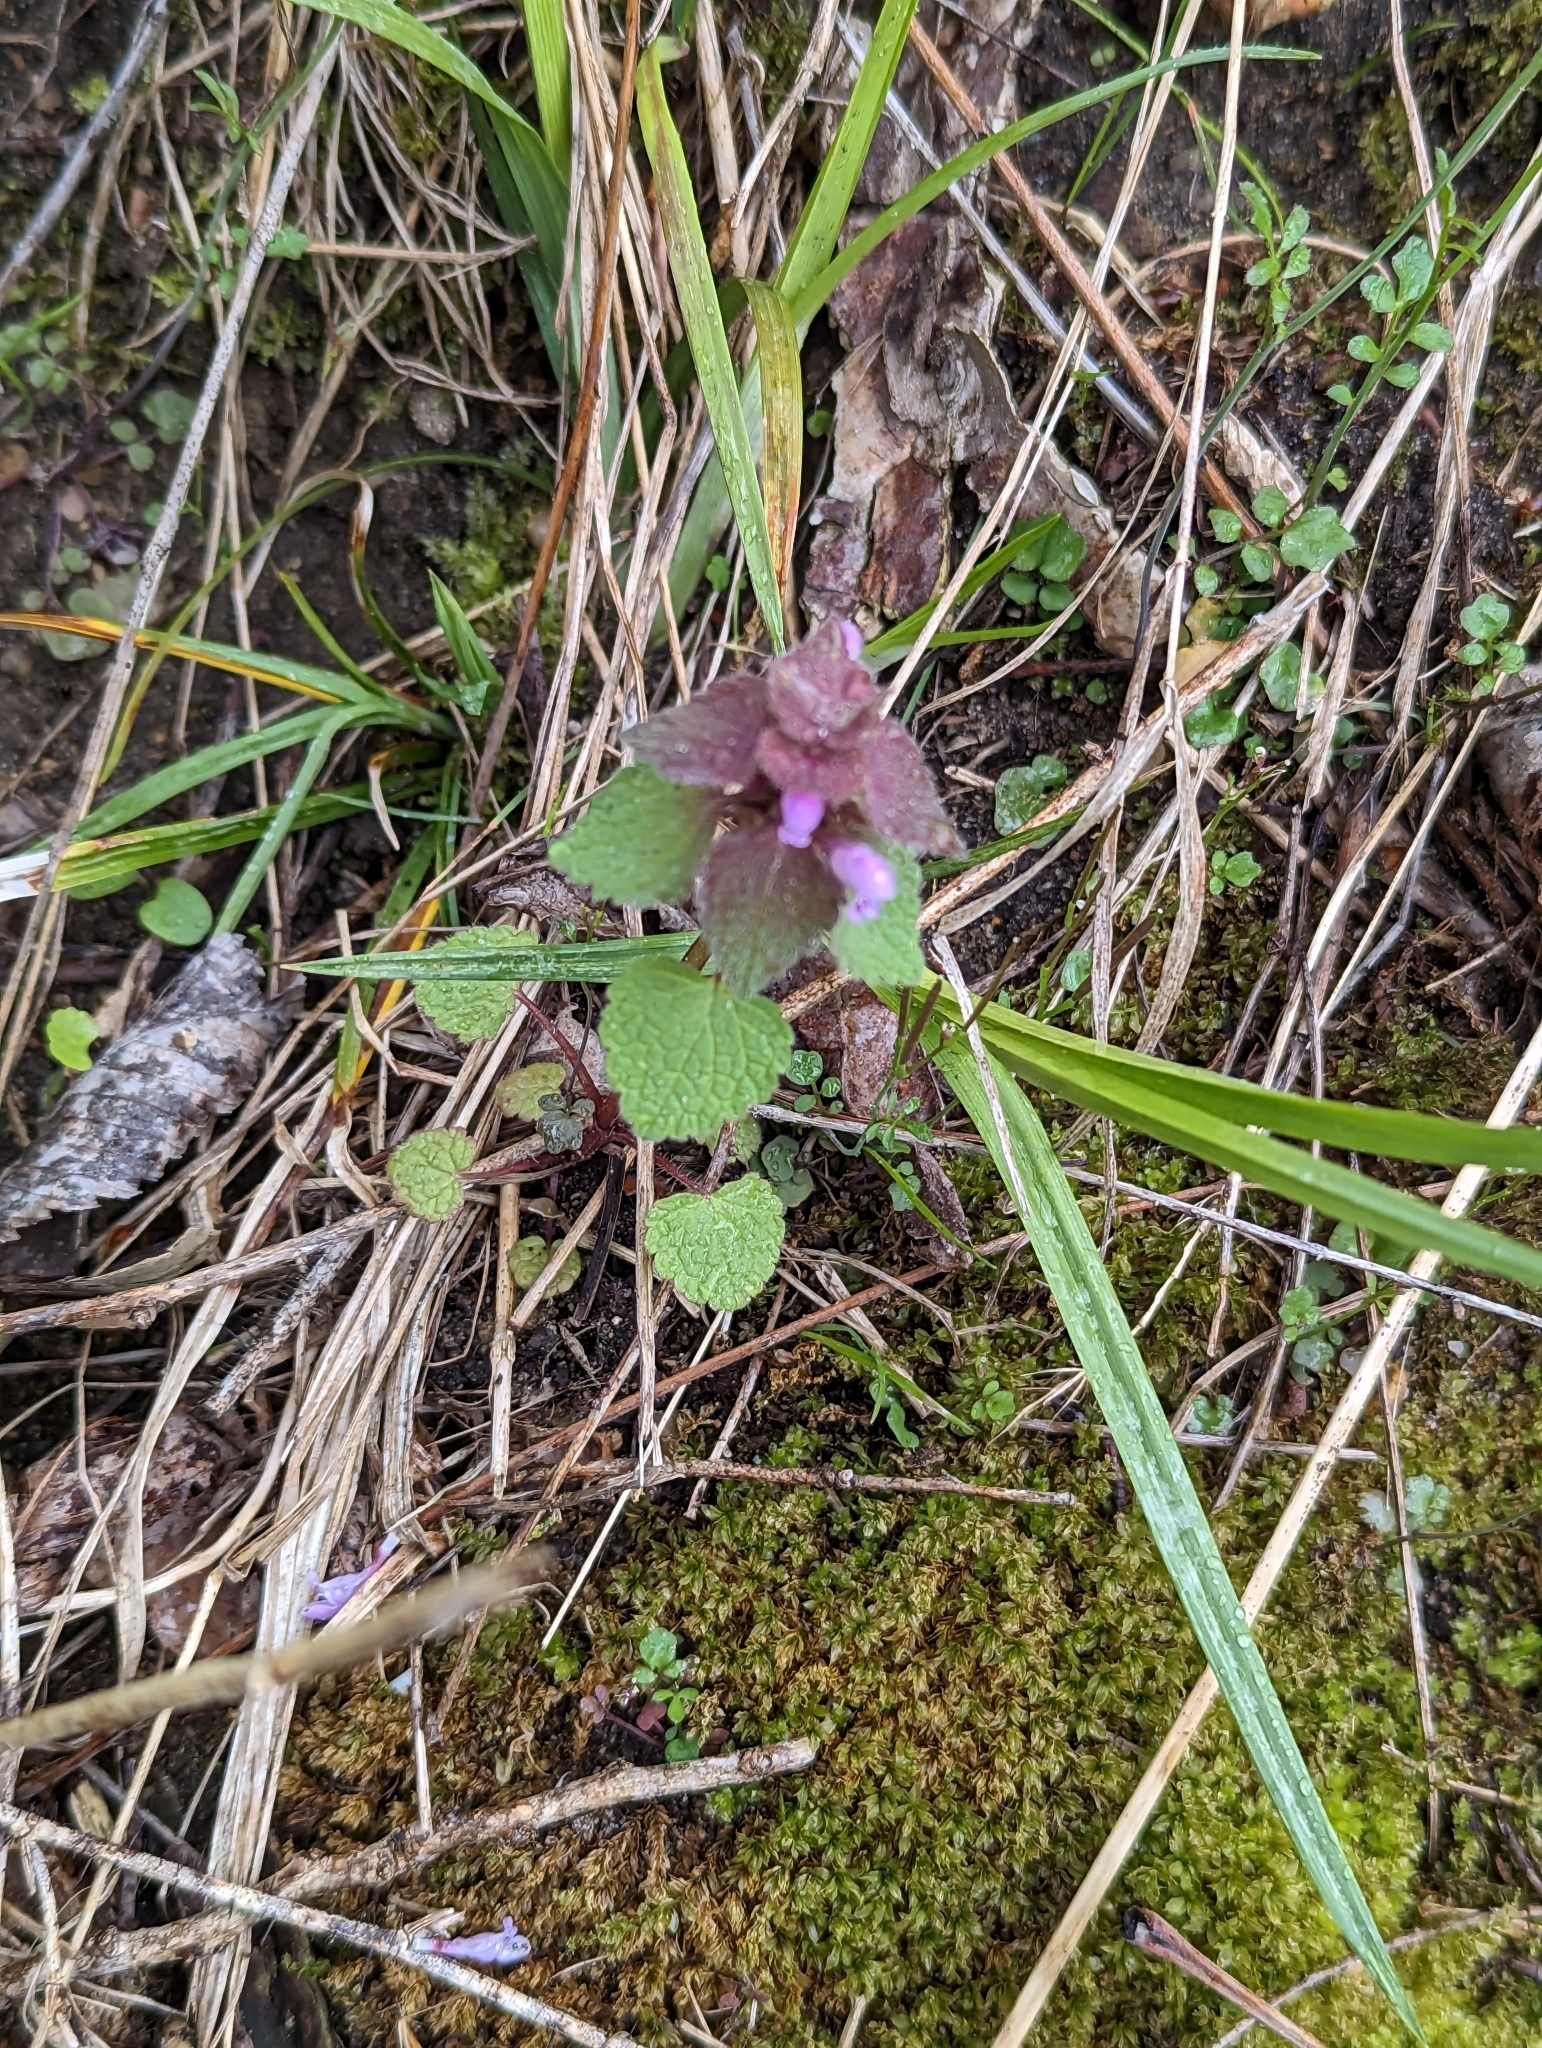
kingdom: Plantae
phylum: Tracheophyta
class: Magnoliopsida
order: Lamiales
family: Lamiaceae
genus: Lamium
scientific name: Lamium purpureum
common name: Red dead-nettle
